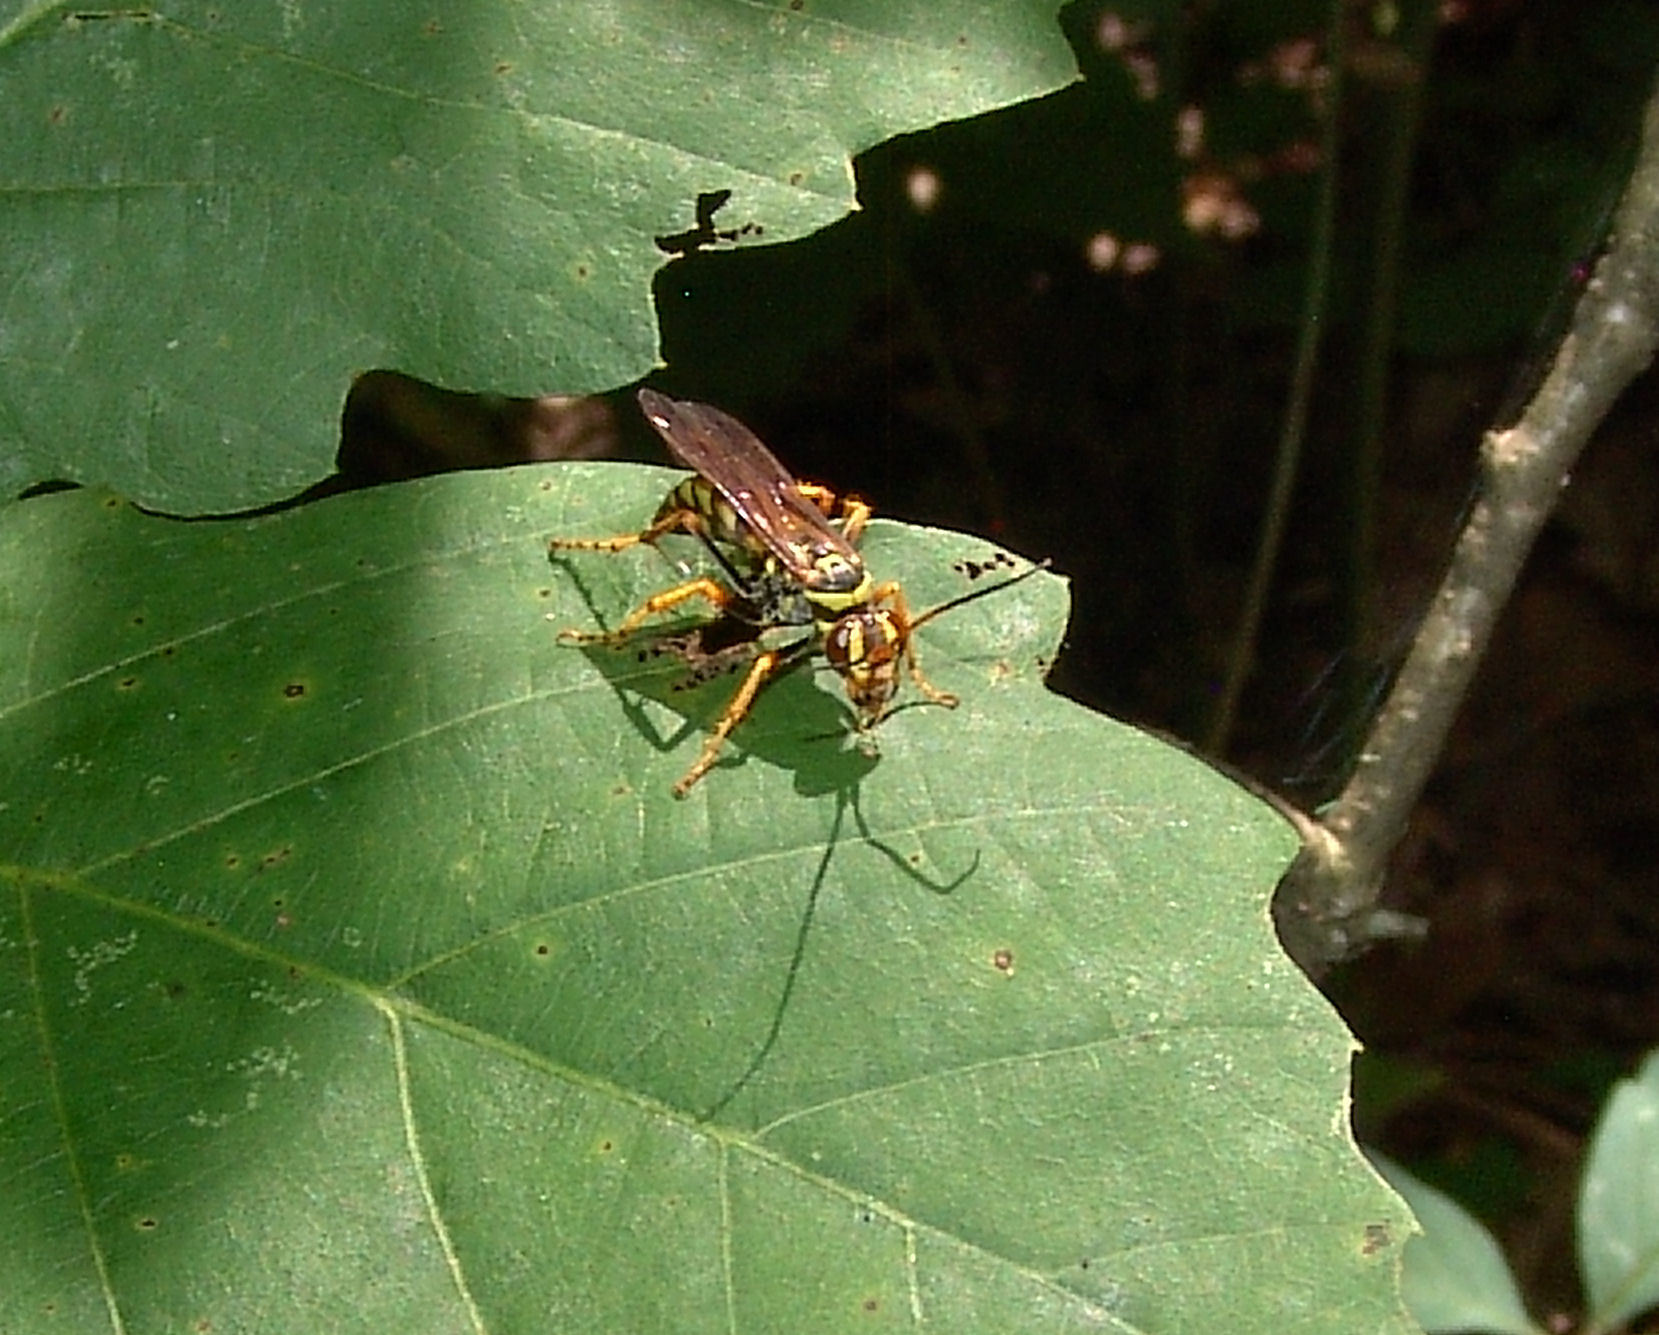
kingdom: Animalia
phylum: Arthropoda
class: Insecta
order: Hymenoptera
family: Pompilidae
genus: Poecilopompilus
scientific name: Poecilopompilus interruptus
